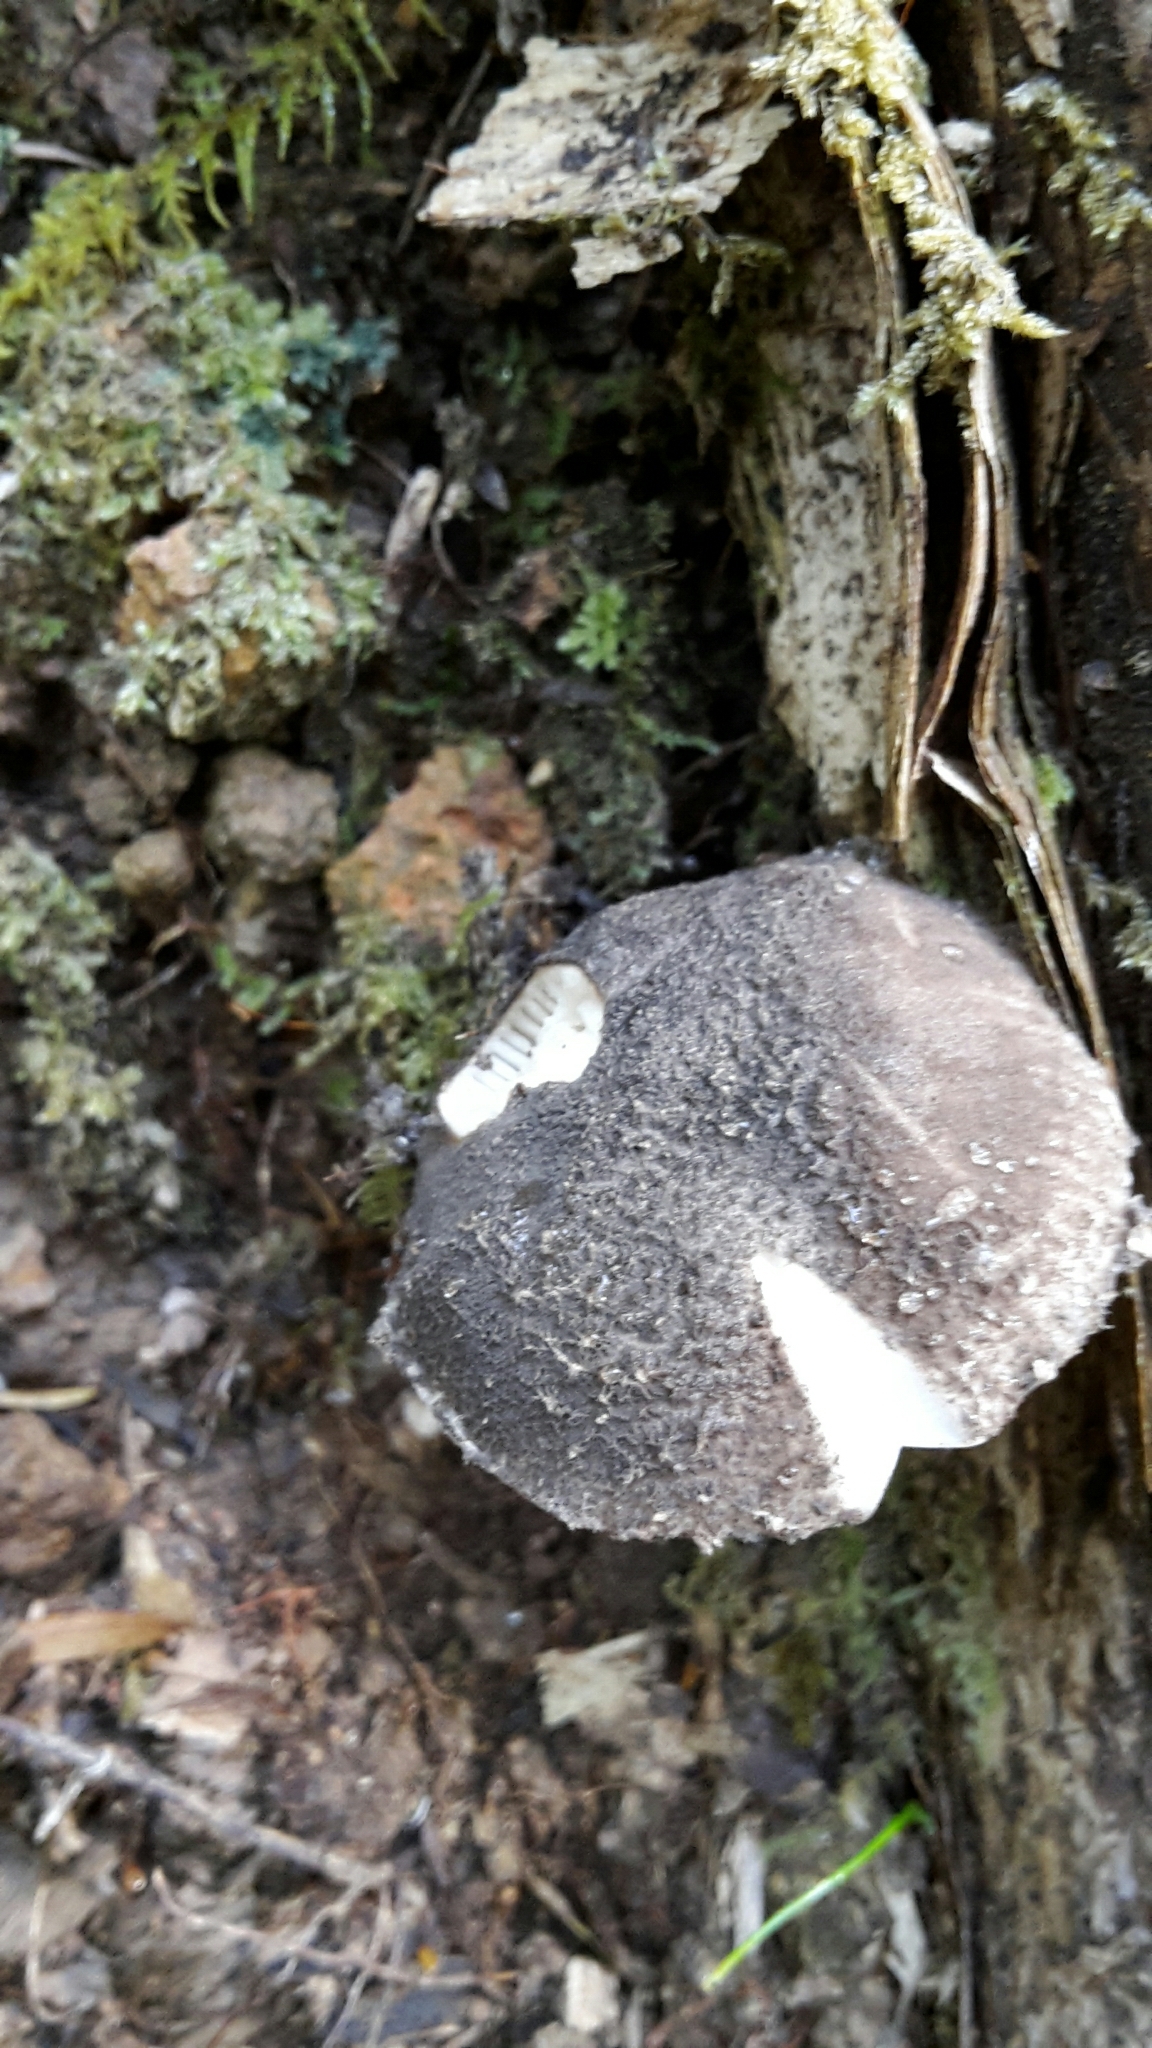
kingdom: Fungi
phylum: Basidiomycota
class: Agaricomycetes
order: Agaricales
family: Amanitaceae
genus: Amanita
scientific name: Amanita nehuta
